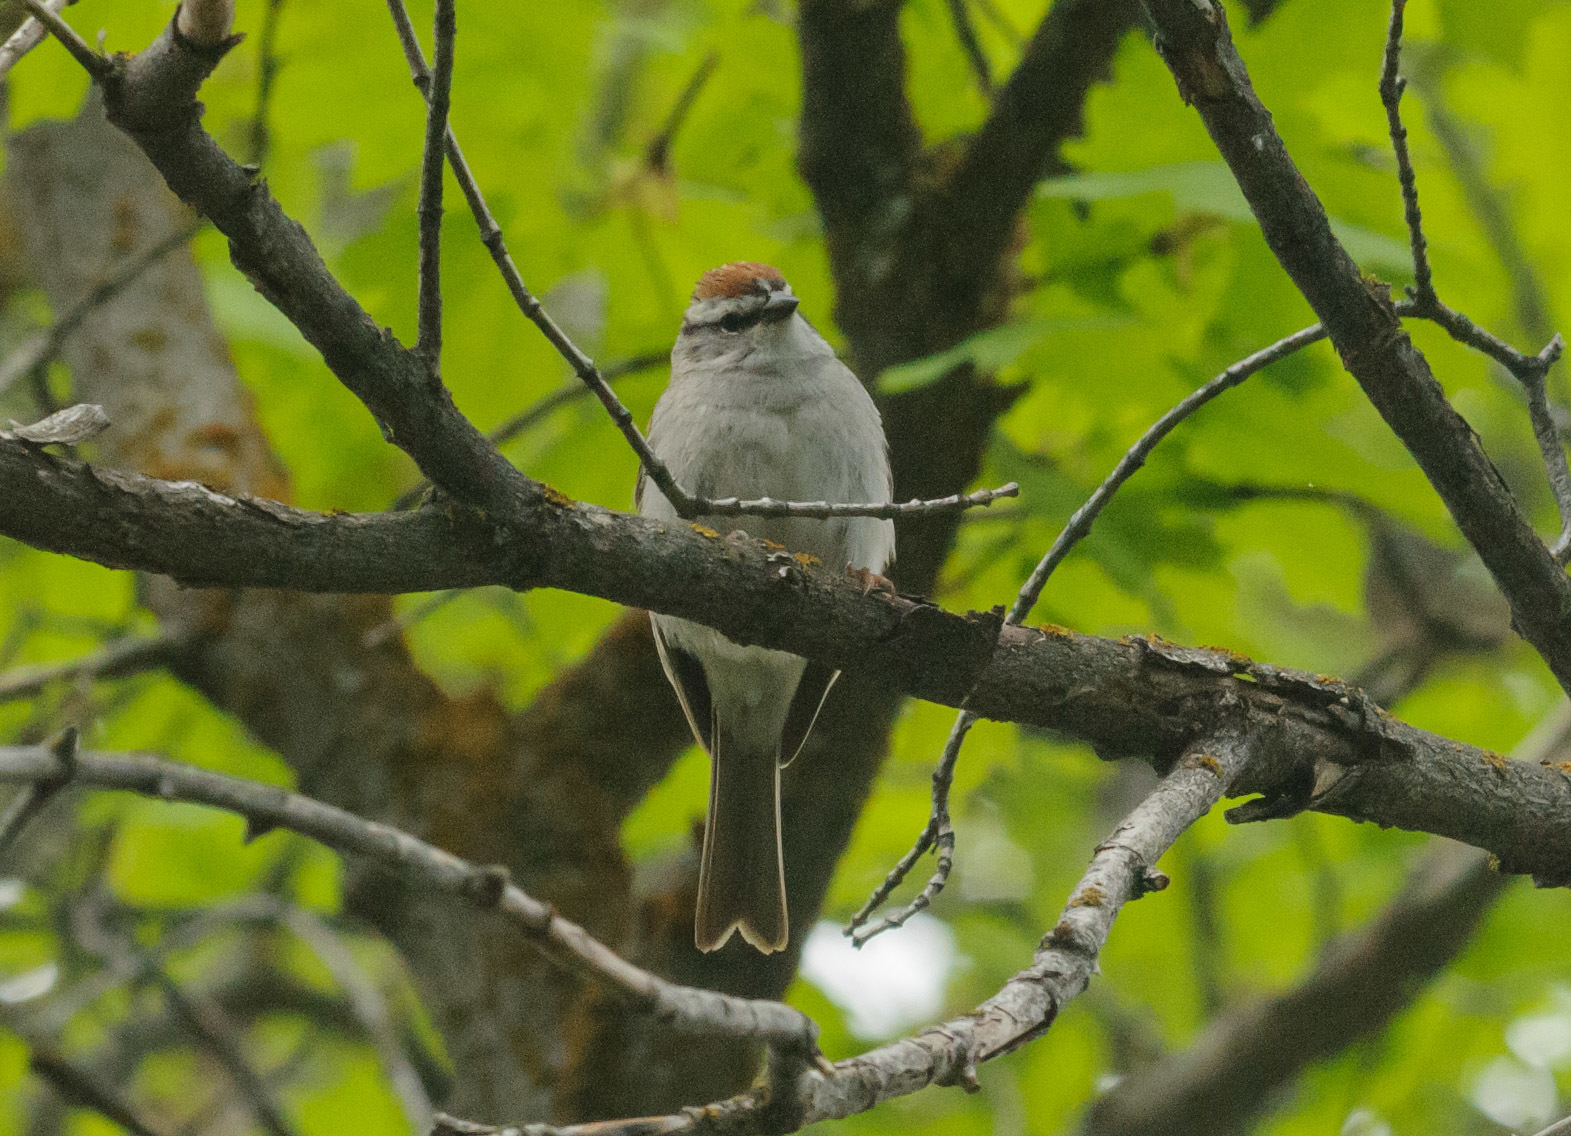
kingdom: Animalia
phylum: Chordata
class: Aves
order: Passeriformes
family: Passerellidae
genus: Spizella
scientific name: Spizella passerina
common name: Chipping sparrow
